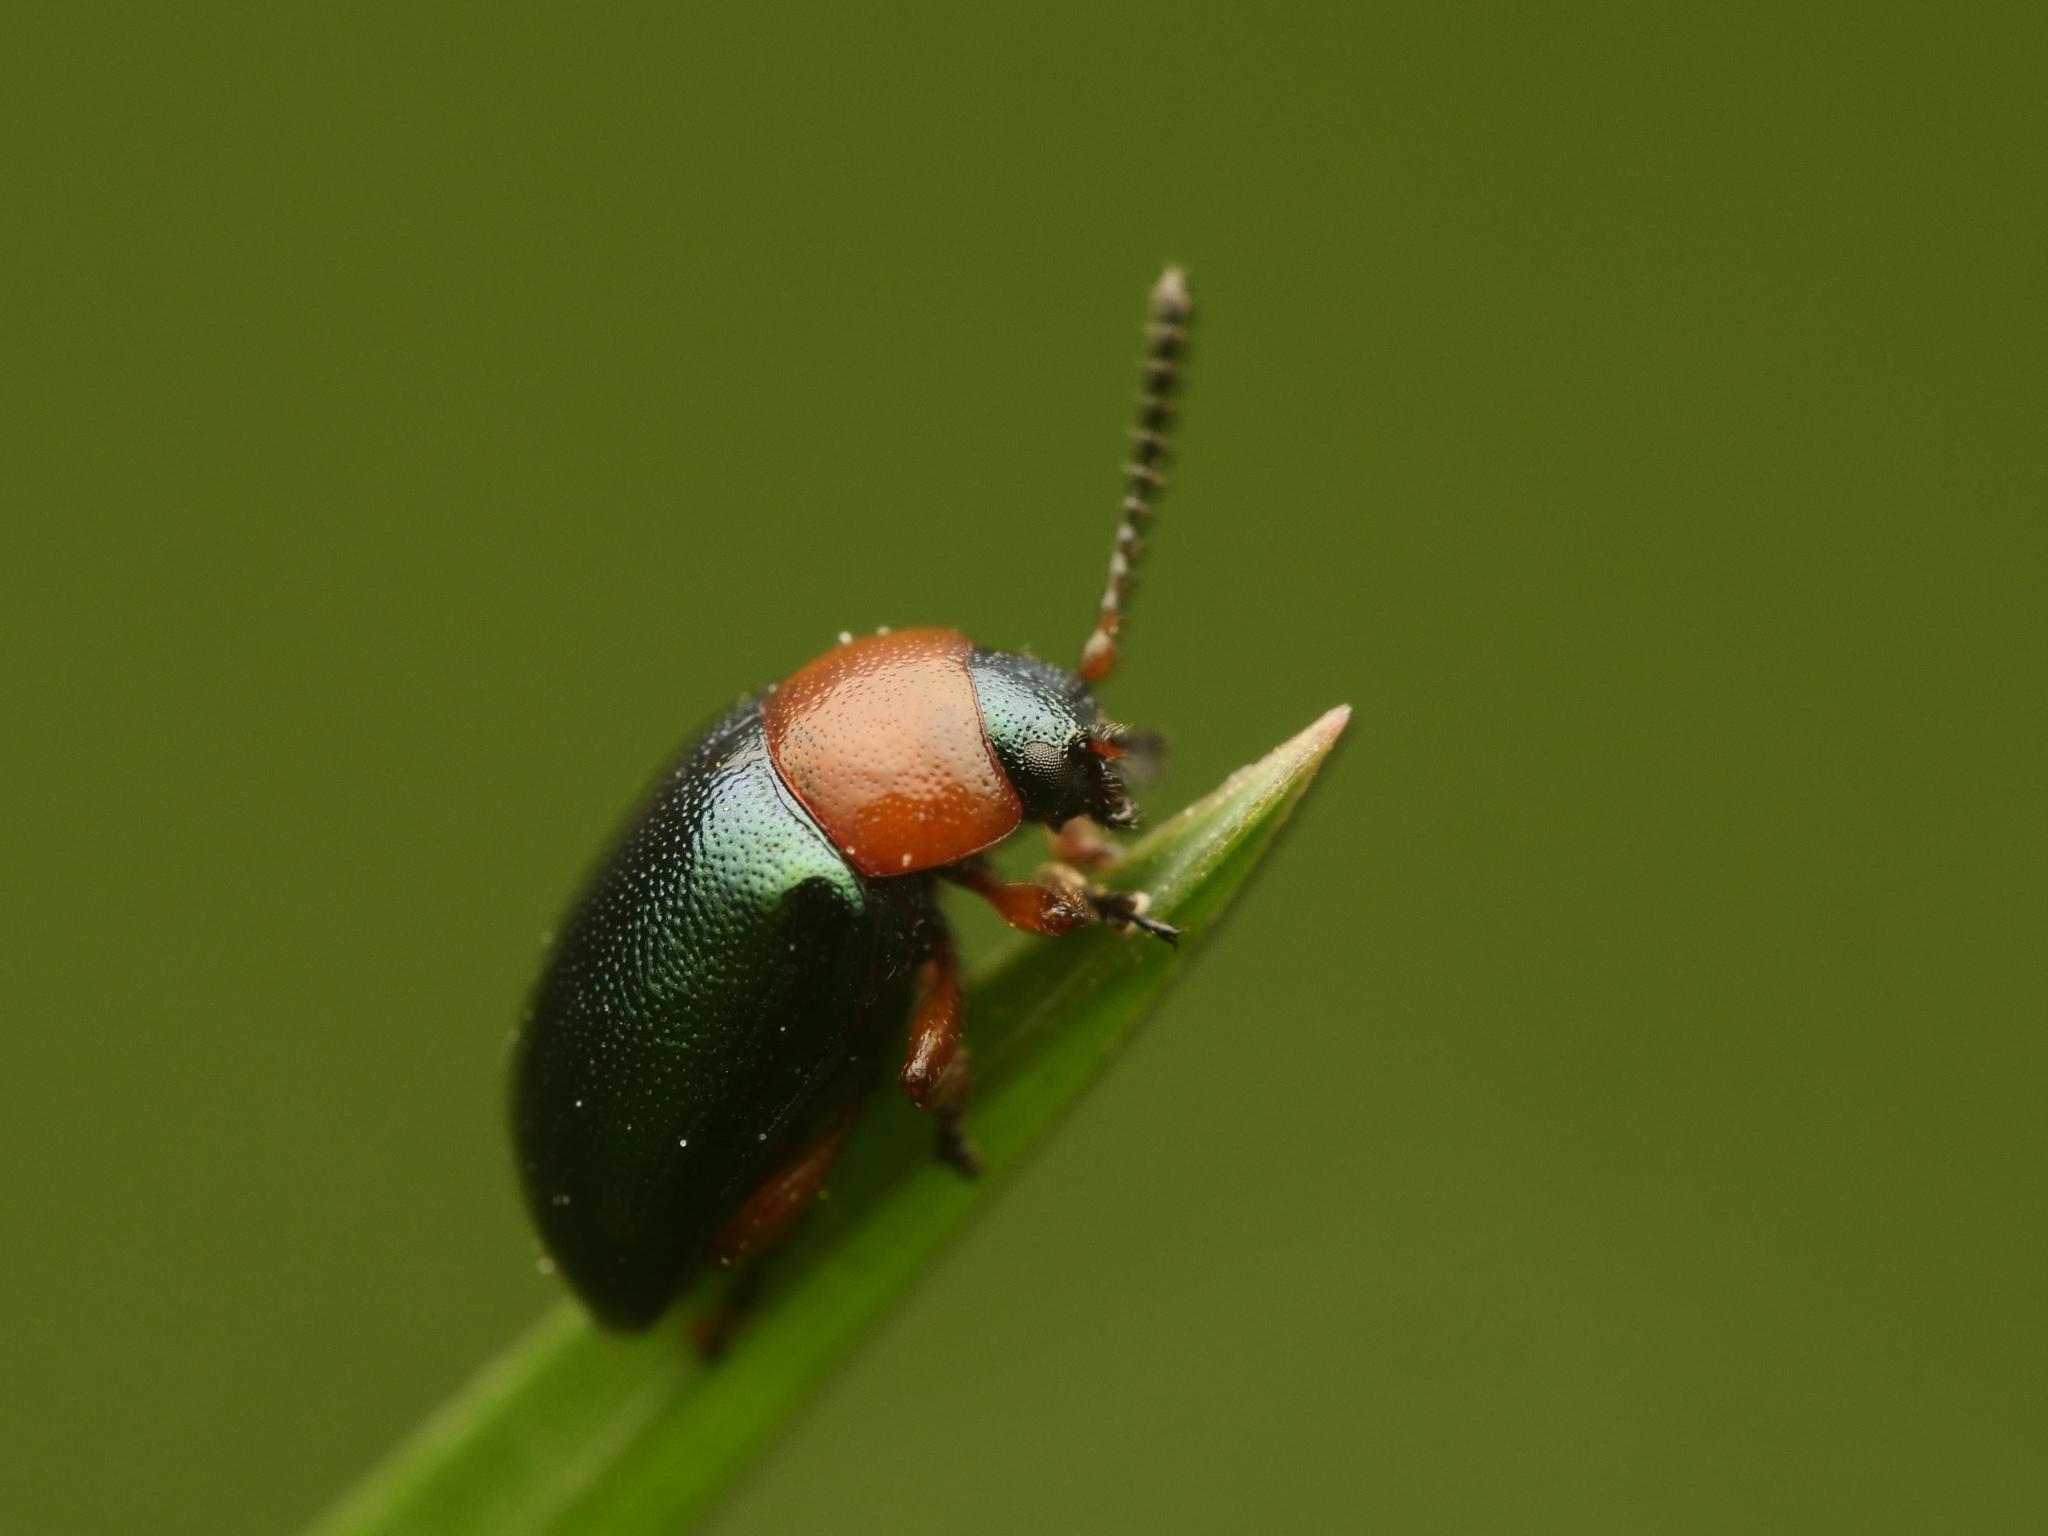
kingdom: Animalia
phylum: Arthropoda
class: Insecta
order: Coleoptera
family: Chrysomelidae
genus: Gastrophysa
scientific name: Gastrophysa polygoni
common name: Knotweed leaf beetle
